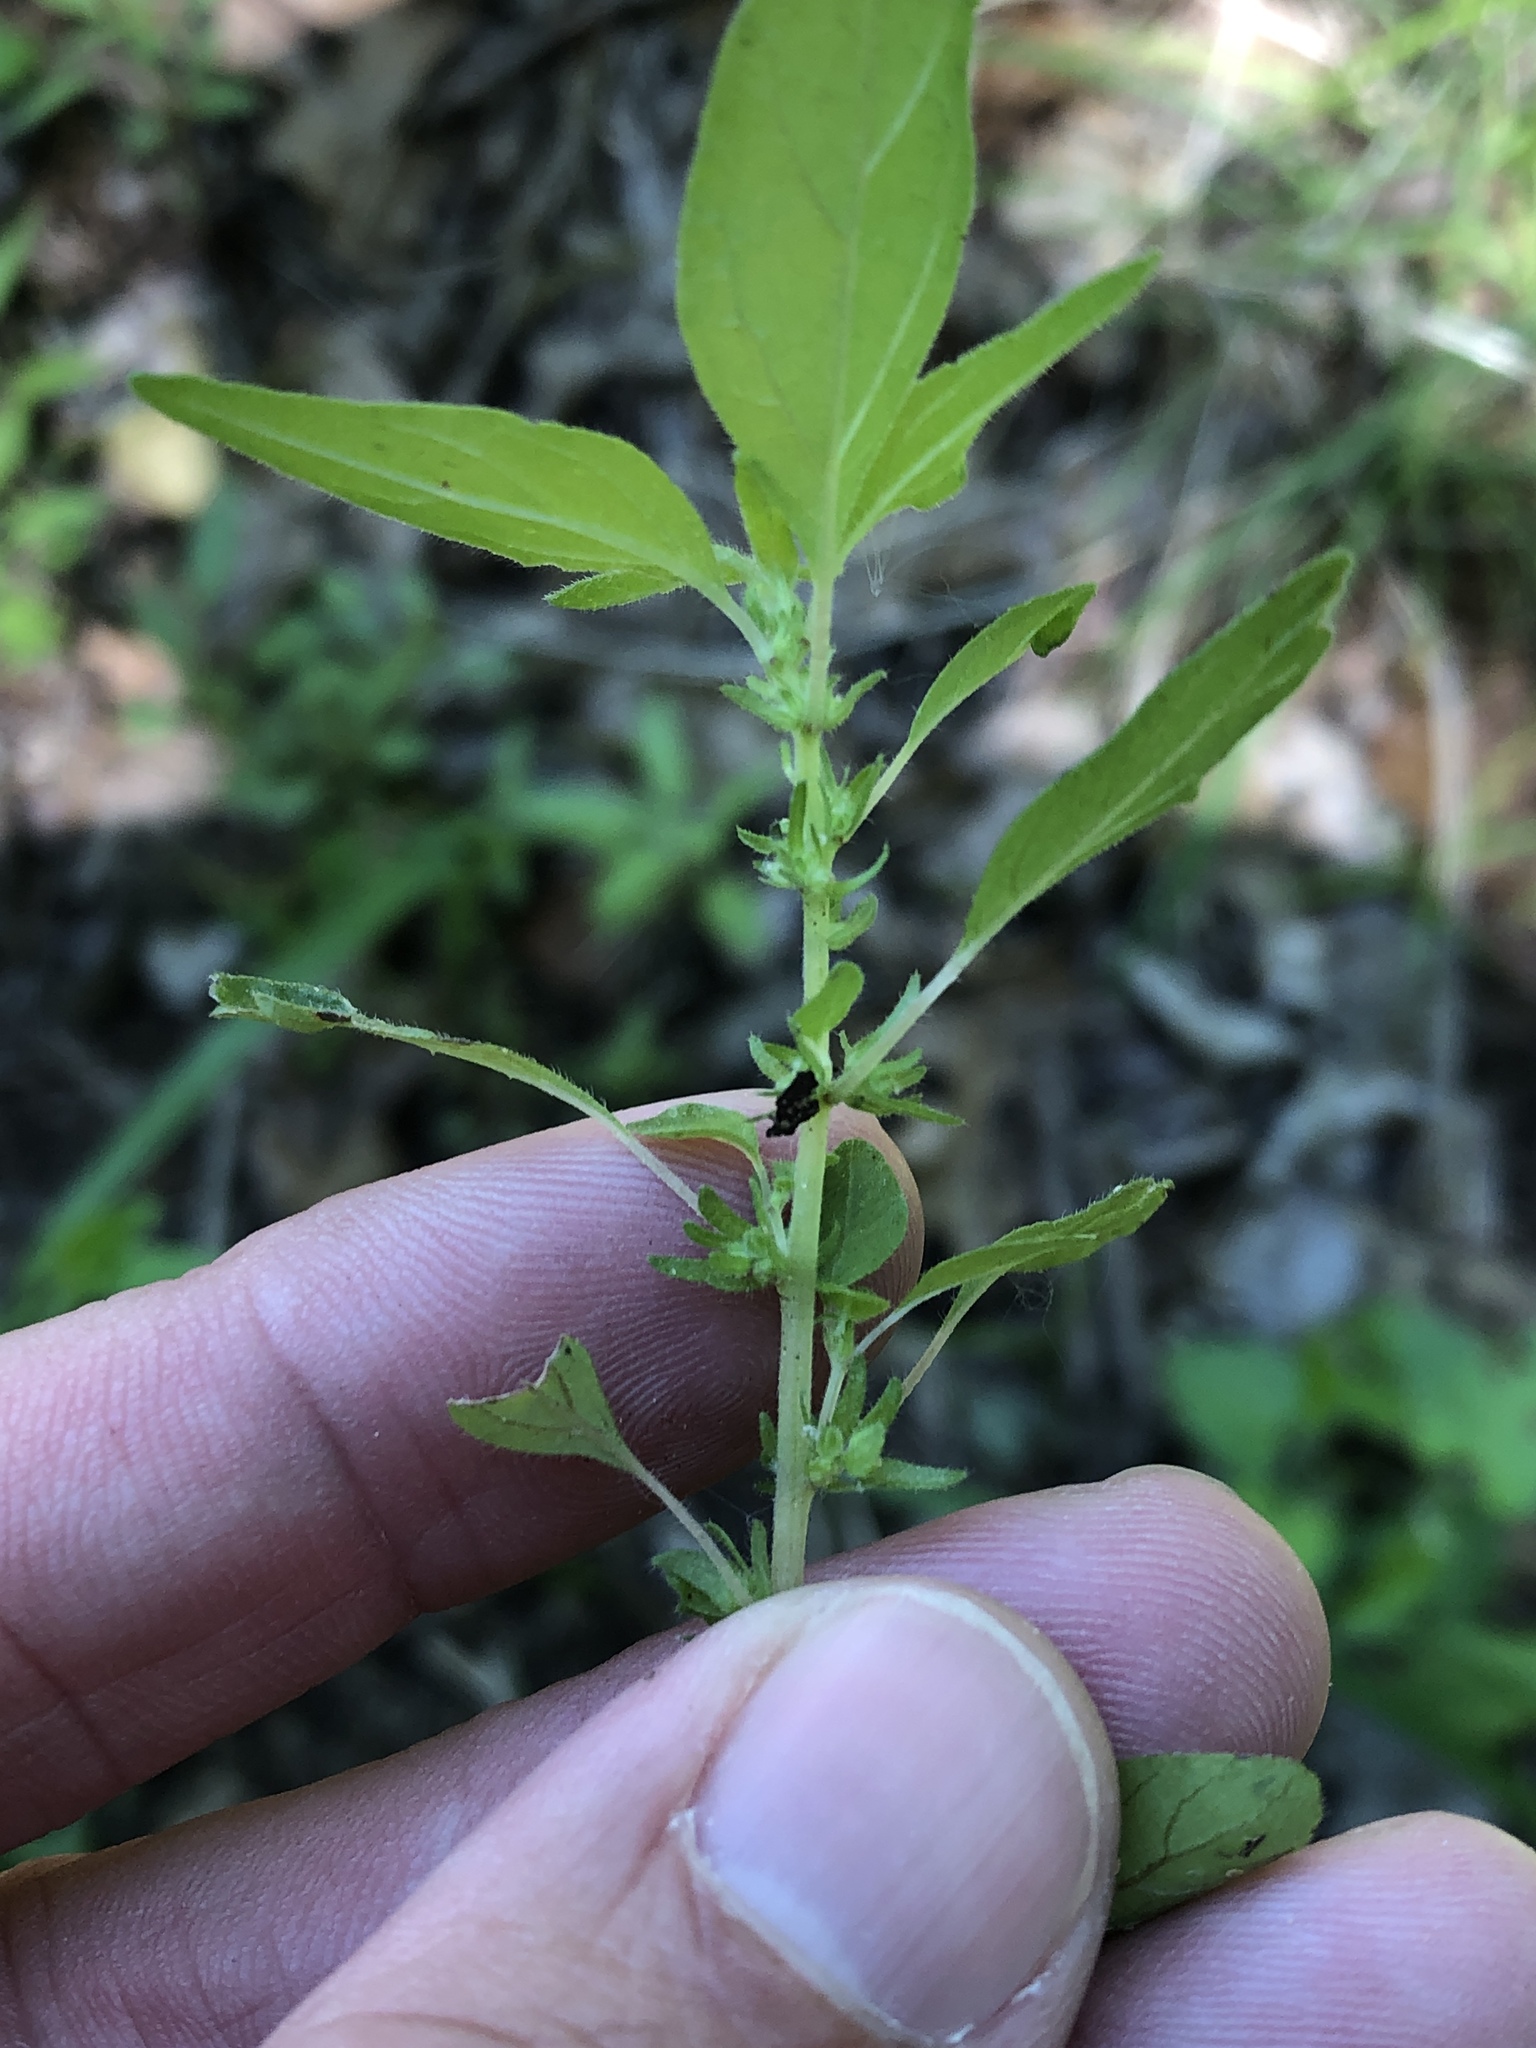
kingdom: Plantae
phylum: Tracheophyta
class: Magnoliopsida
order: Rosales
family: Urticaceae
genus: Parietaria
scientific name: Parietaria pensylvanica
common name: Pennsylvania pellitory
